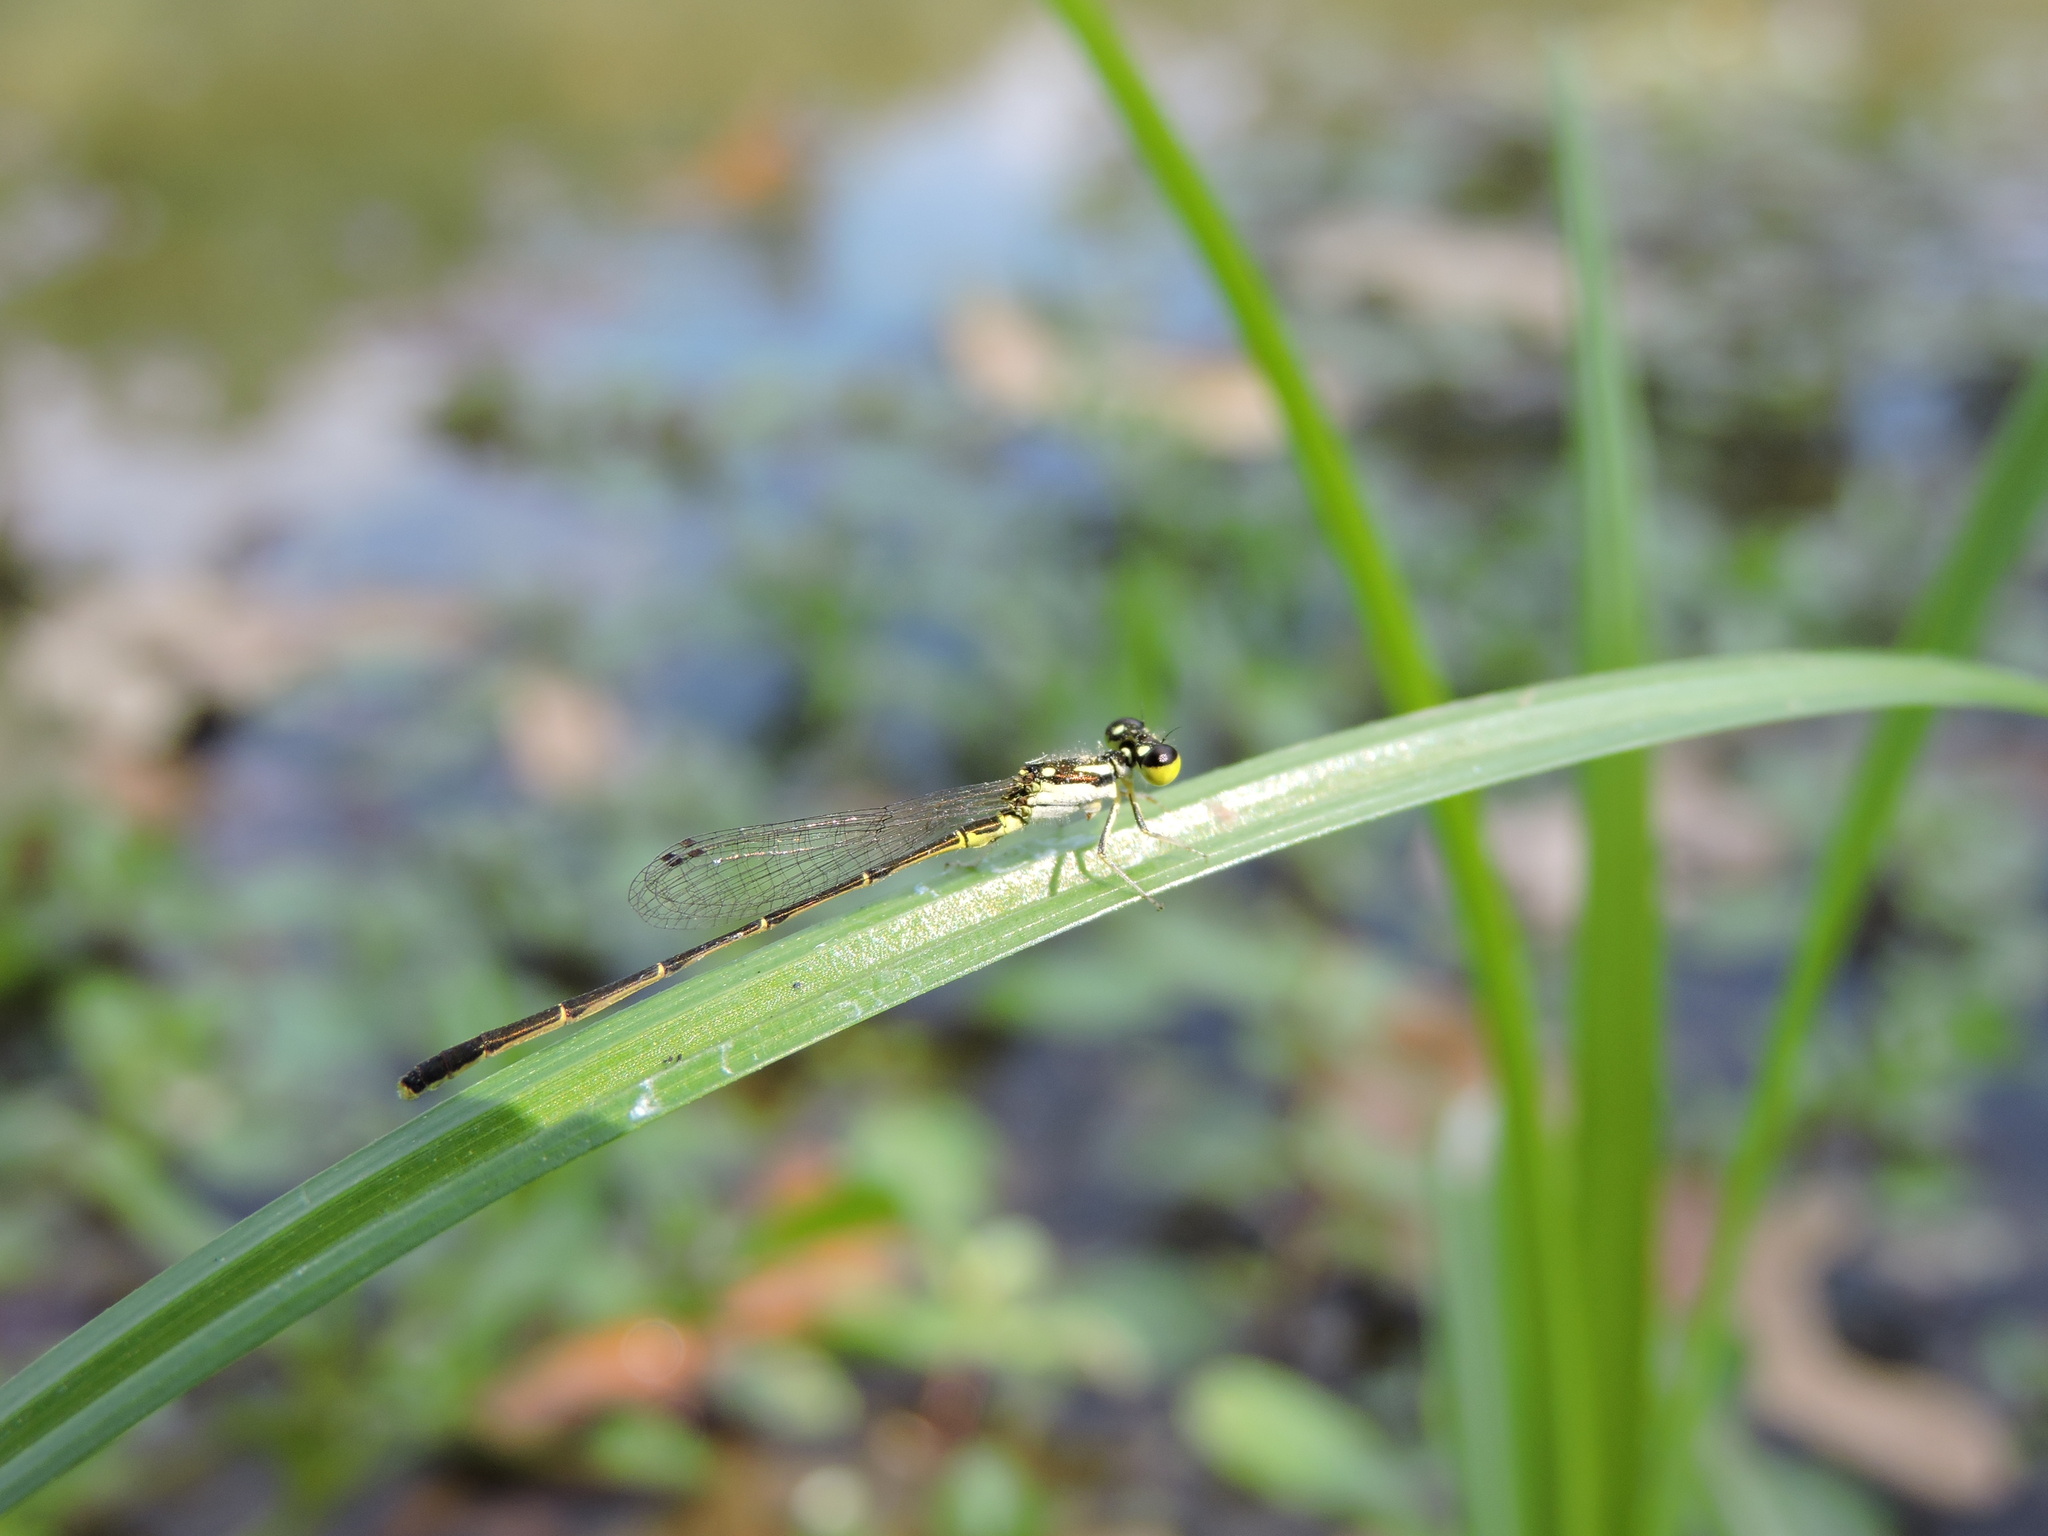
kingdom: Animalia
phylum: Arthropoda
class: Insecta
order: Odonata
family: Coenagrionidae
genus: Ischnura
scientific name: Ischnura posita
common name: Fragile forktail
